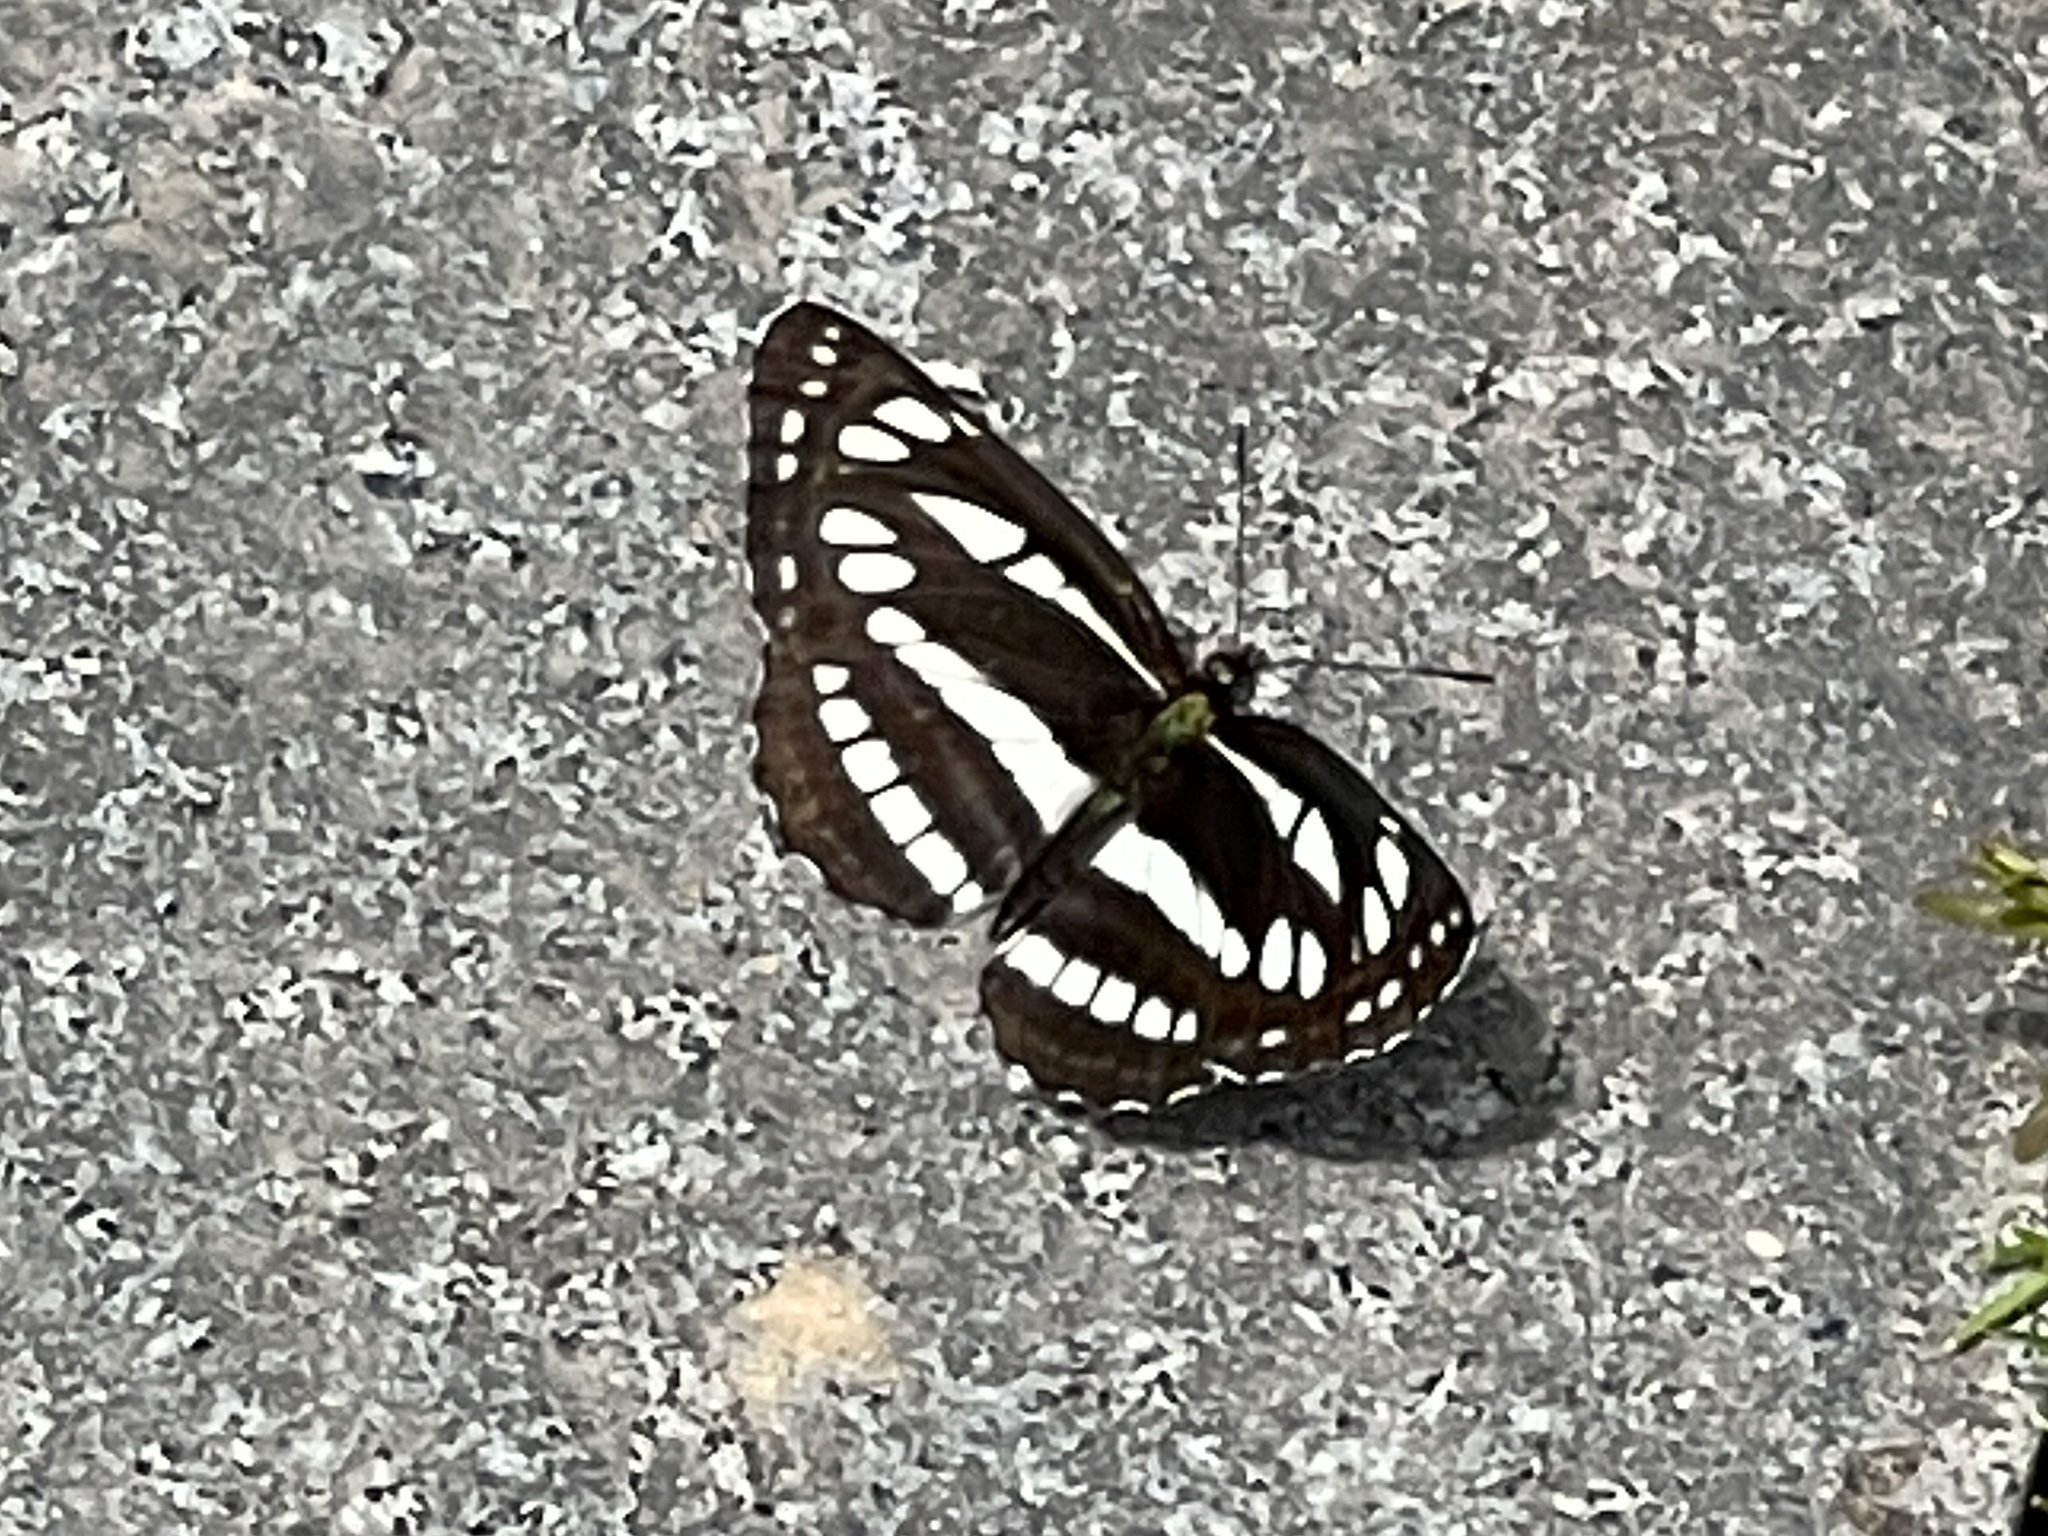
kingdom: Animalia
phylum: Arthropoda
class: Insecta
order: Lepidoptera
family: Nymphalidae
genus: Neptis
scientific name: Neptis sappho
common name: Common glider
